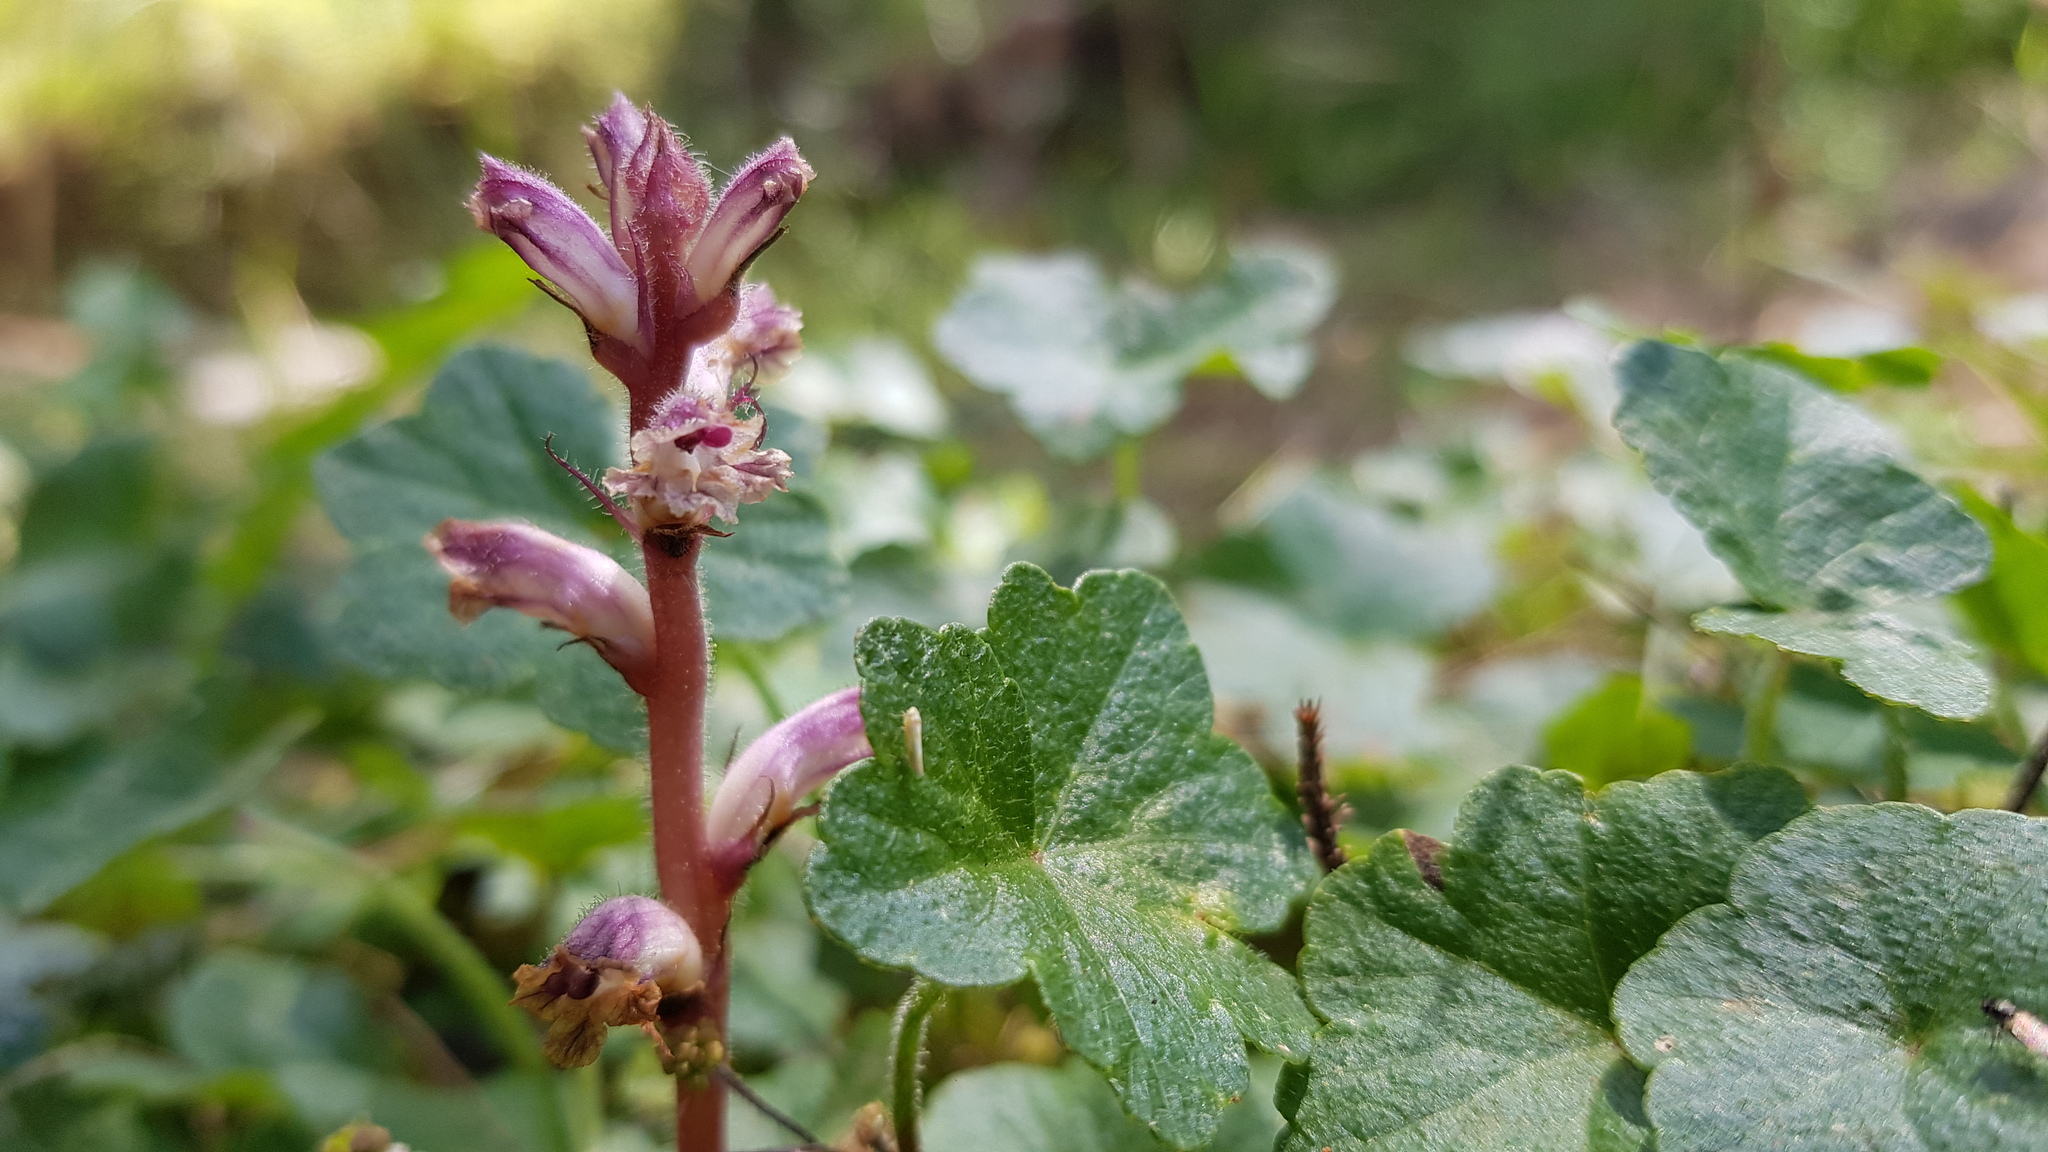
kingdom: Plantae
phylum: Tracheophyta
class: Magnoliopsida
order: Lamiales
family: Orobanchaceae
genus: Orobanche
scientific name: Orobanche minor
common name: Common broomrape
